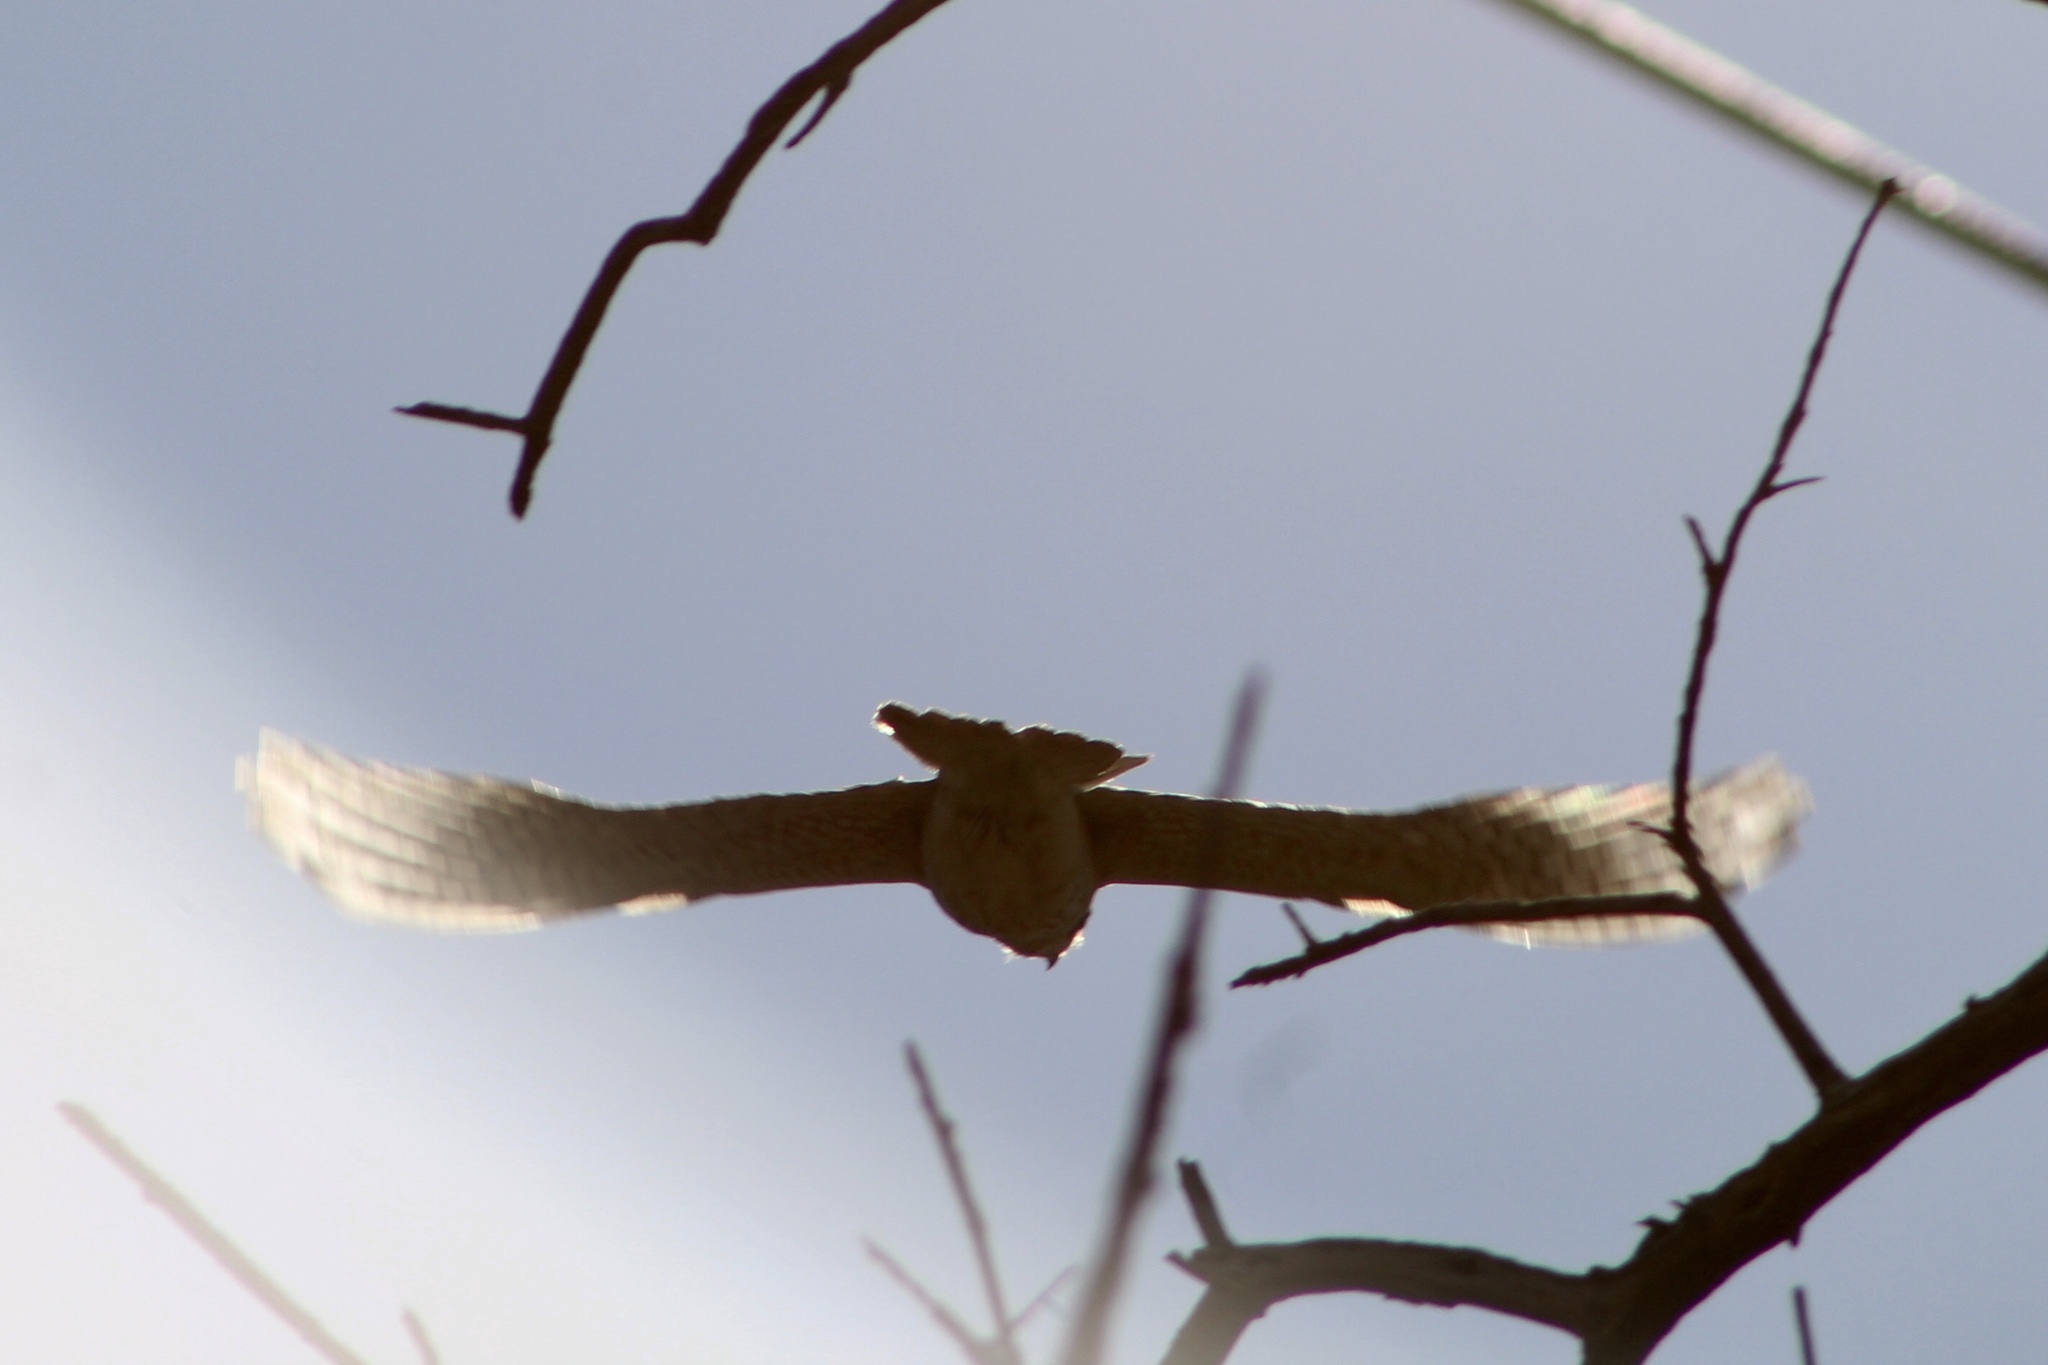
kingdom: Animalia
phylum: Chordata
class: Aves
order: Falconiformes
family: Falconidae
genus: Falco
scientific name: Falco sparverius
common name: American kestrel
